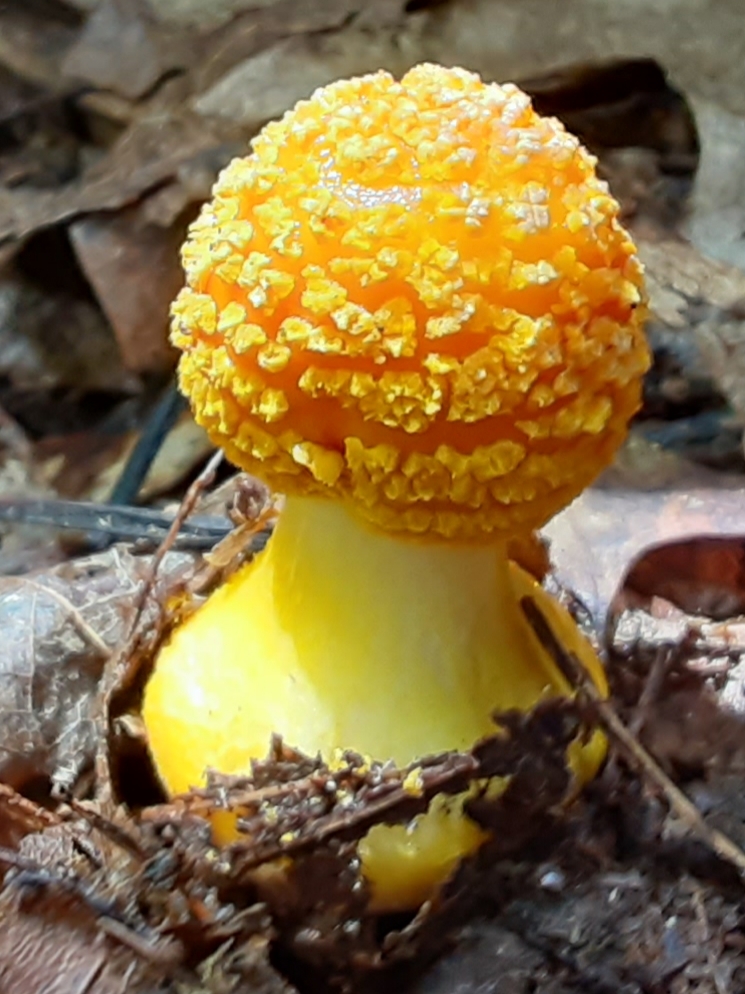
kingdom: Fungi
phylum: Basidiomycota
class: Agaricomycetes
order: Agaricales
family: Amanitaceae
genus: Amanita
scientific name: Amanita flavoconia
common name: Yellow patches
